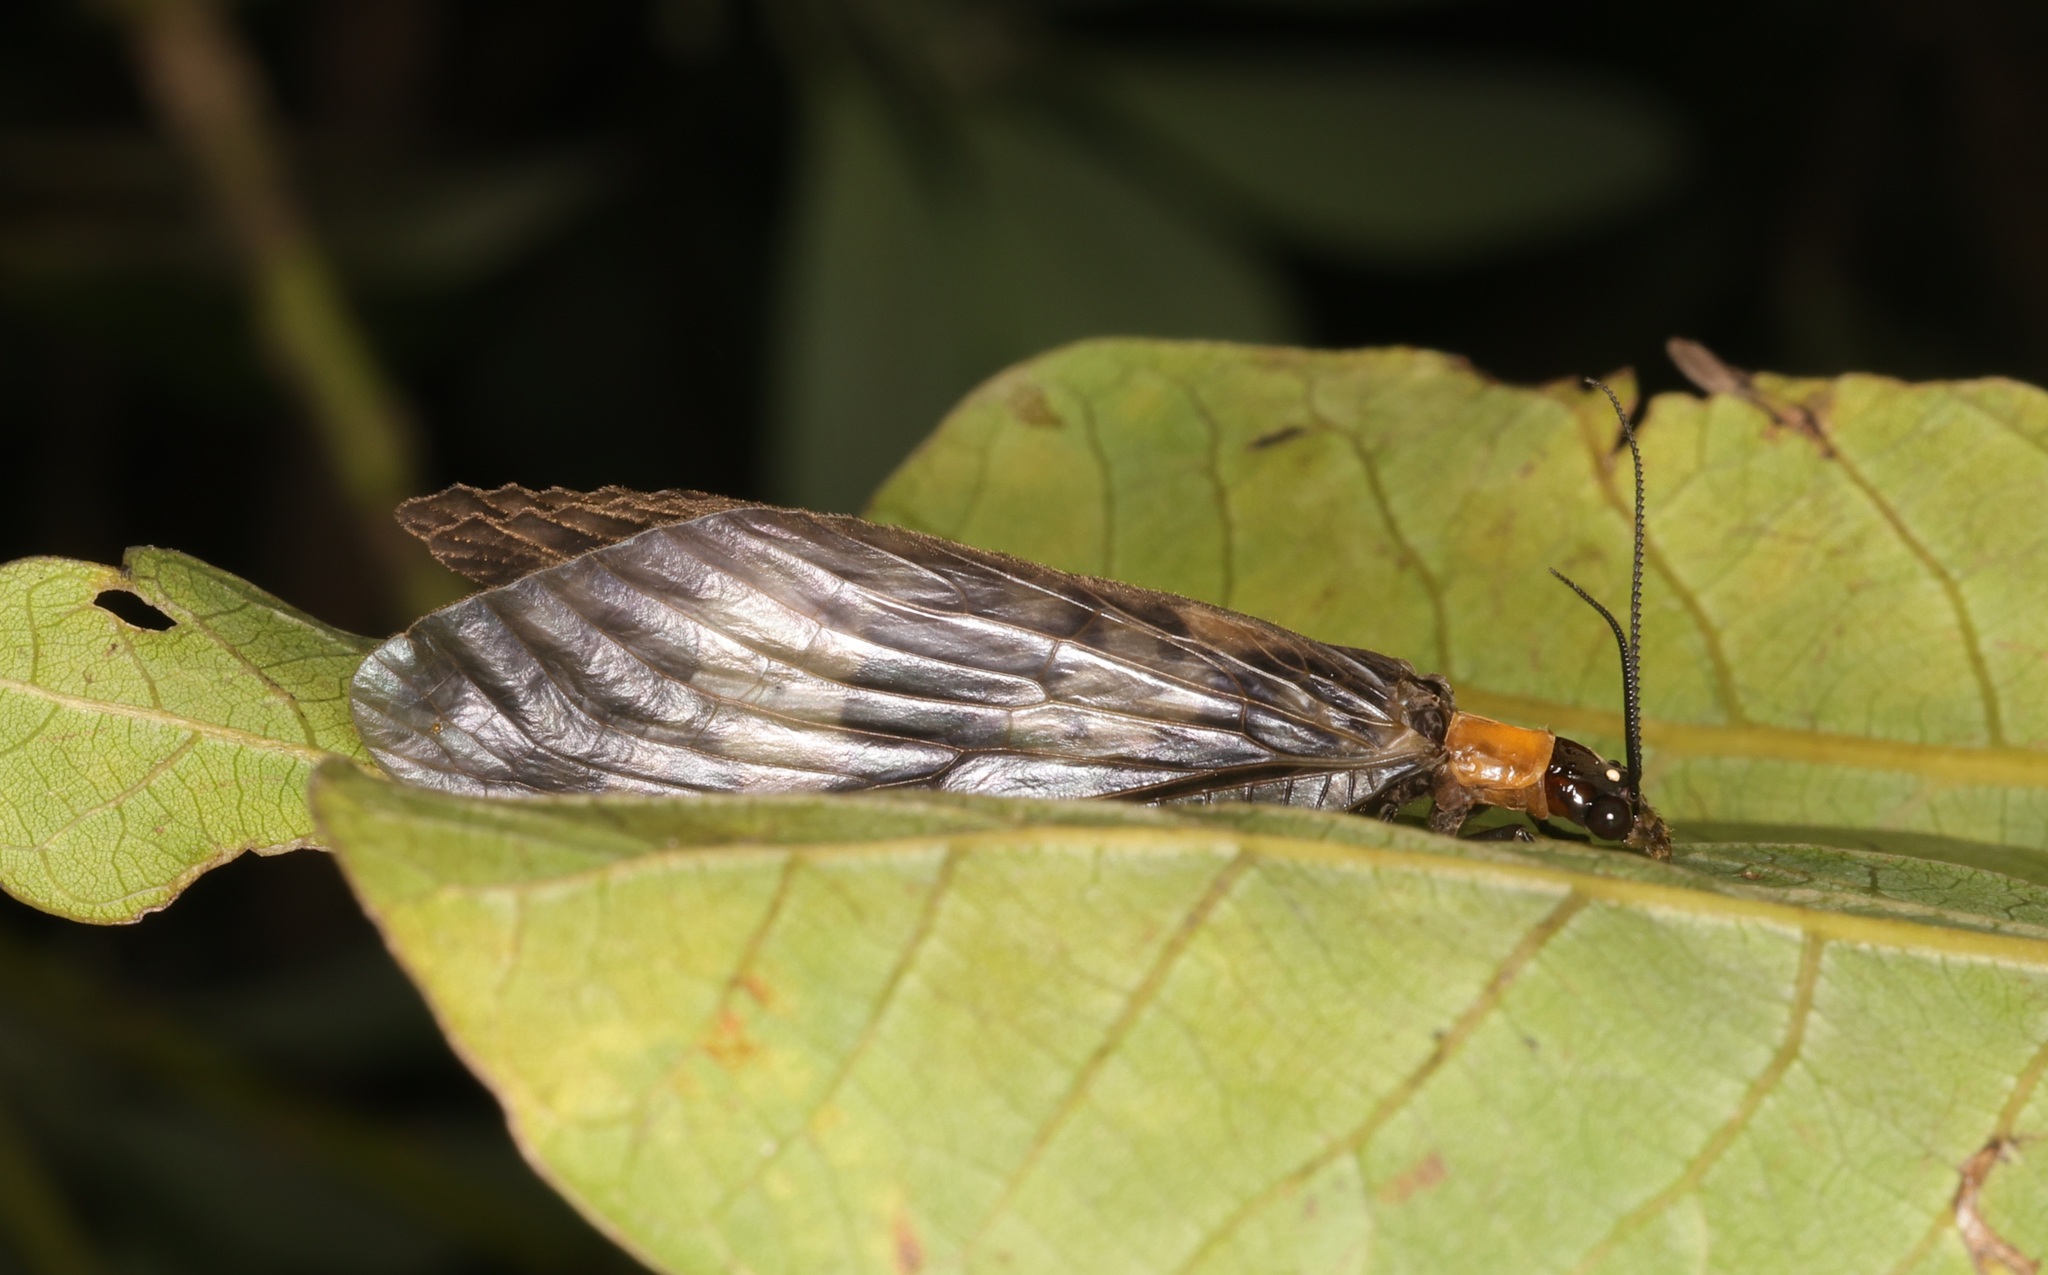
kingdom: Animalia
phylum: Arthropoda
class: Insecta
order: Megaloptera
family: Corydalidae
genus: Neochauliodes
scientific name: Neochauliodes koreanus
